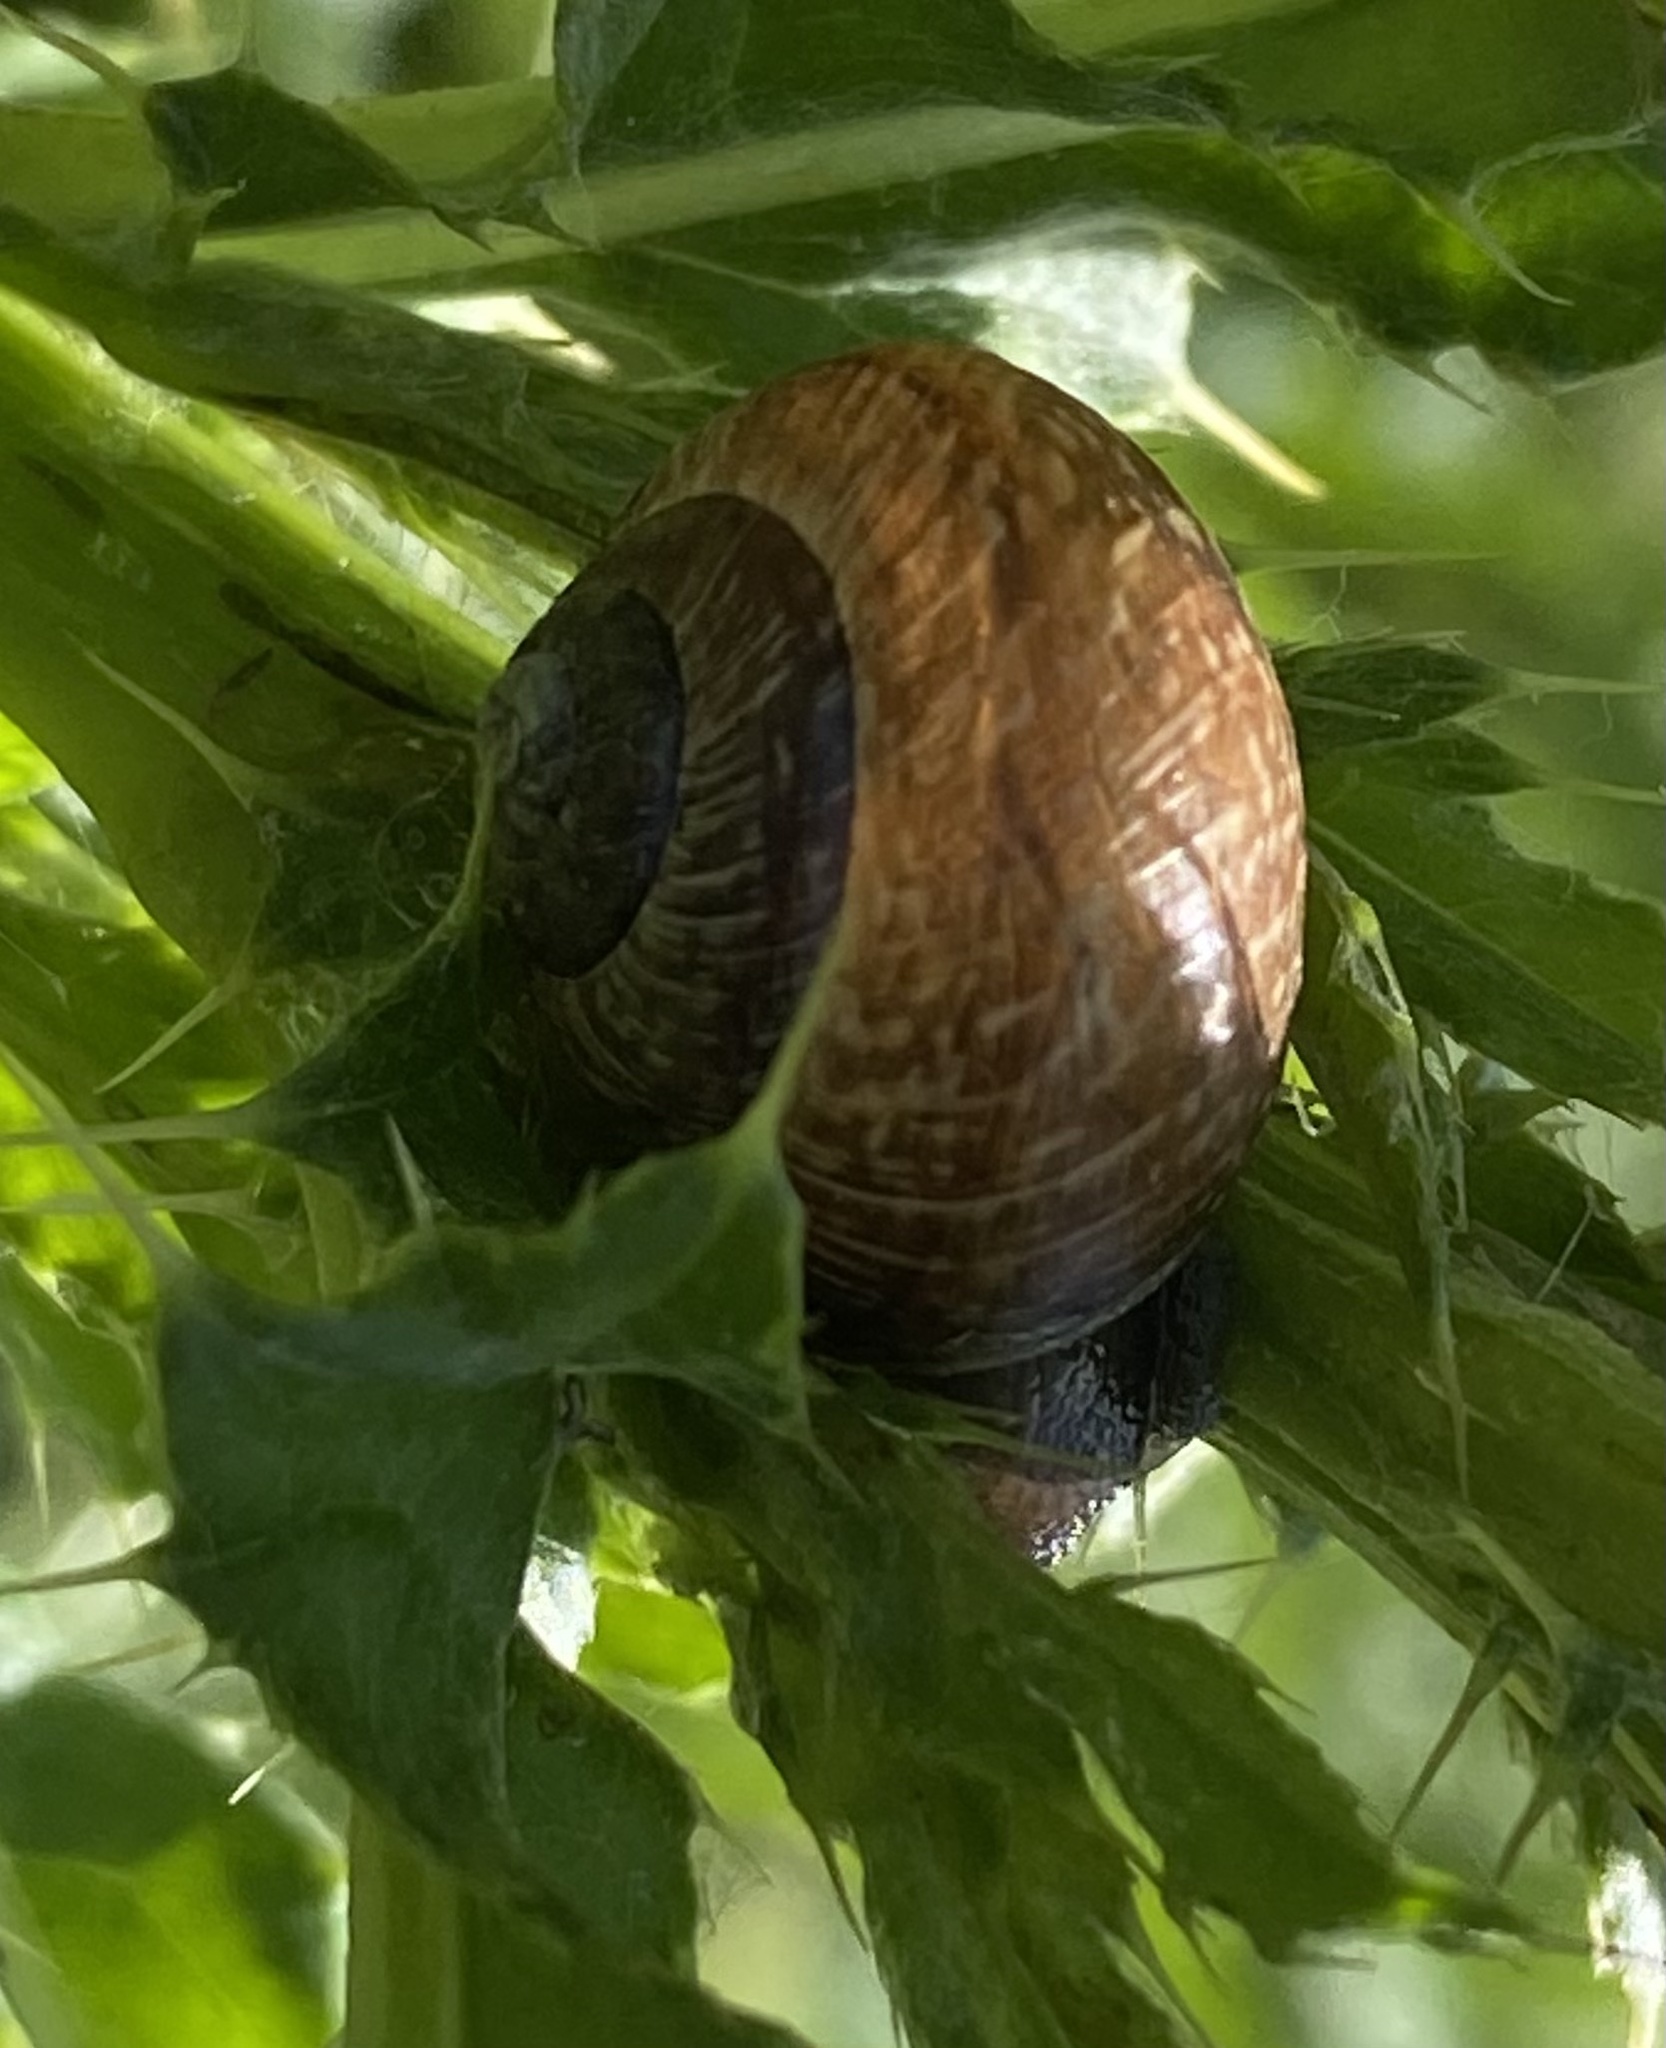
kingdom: Animalia
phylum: Mollusca
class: Gastropoda
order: Stylommatophora
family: Helicidae
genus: Arianta
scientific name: Arianta arbustorum
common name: Copse snail
